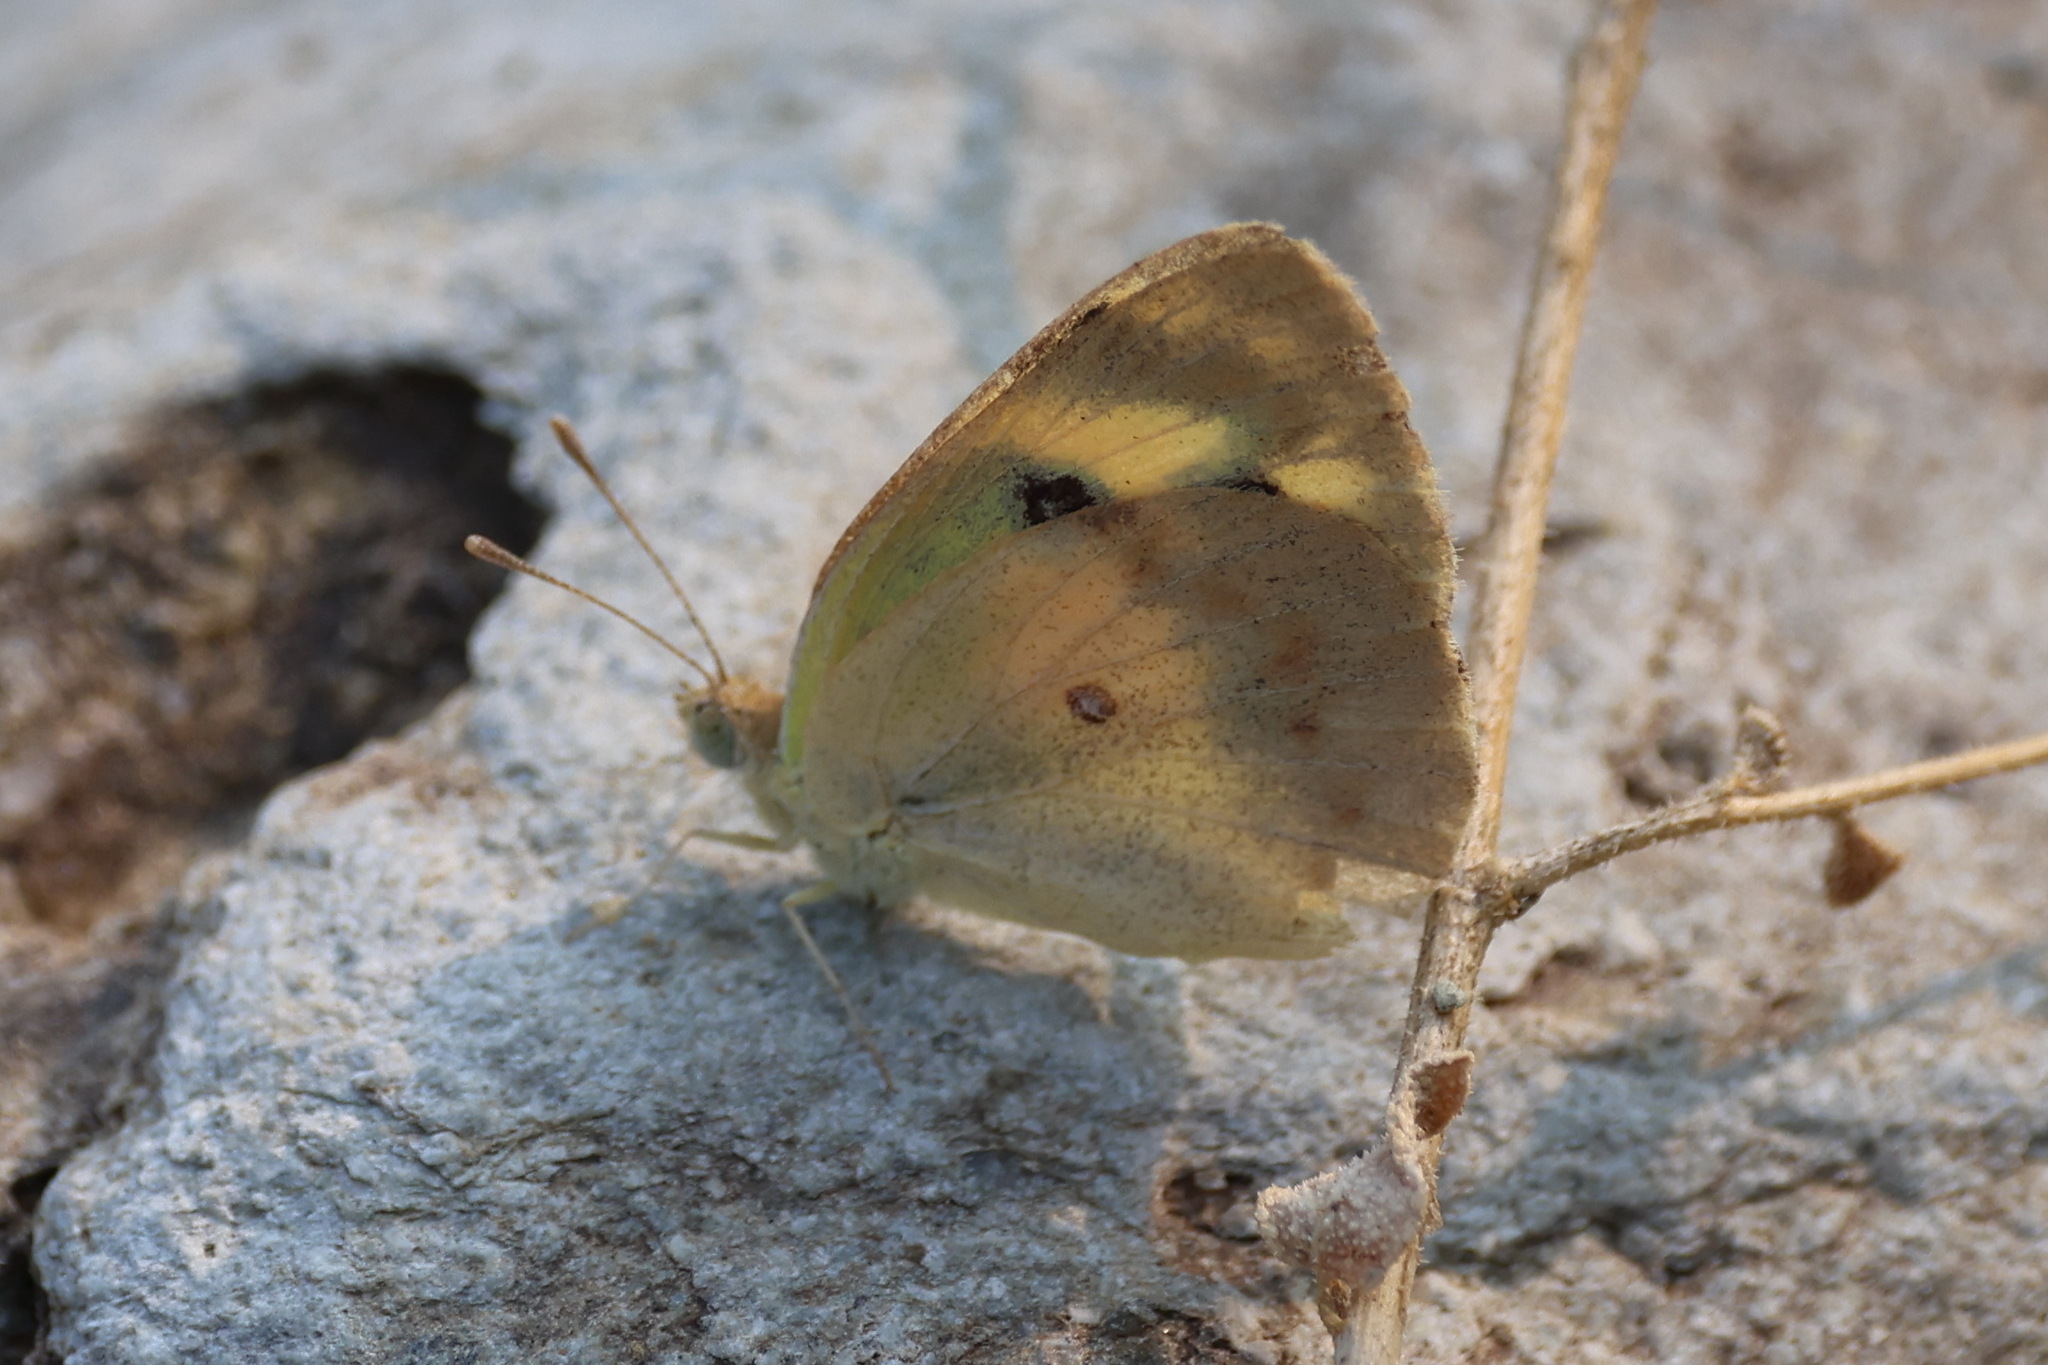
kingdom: Animalia
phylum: Arthropoda
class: Insecta
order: Lepidoptera
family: Pieridae
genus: Colotis
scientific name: Colotis phisadia
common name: Blue spotted arab
